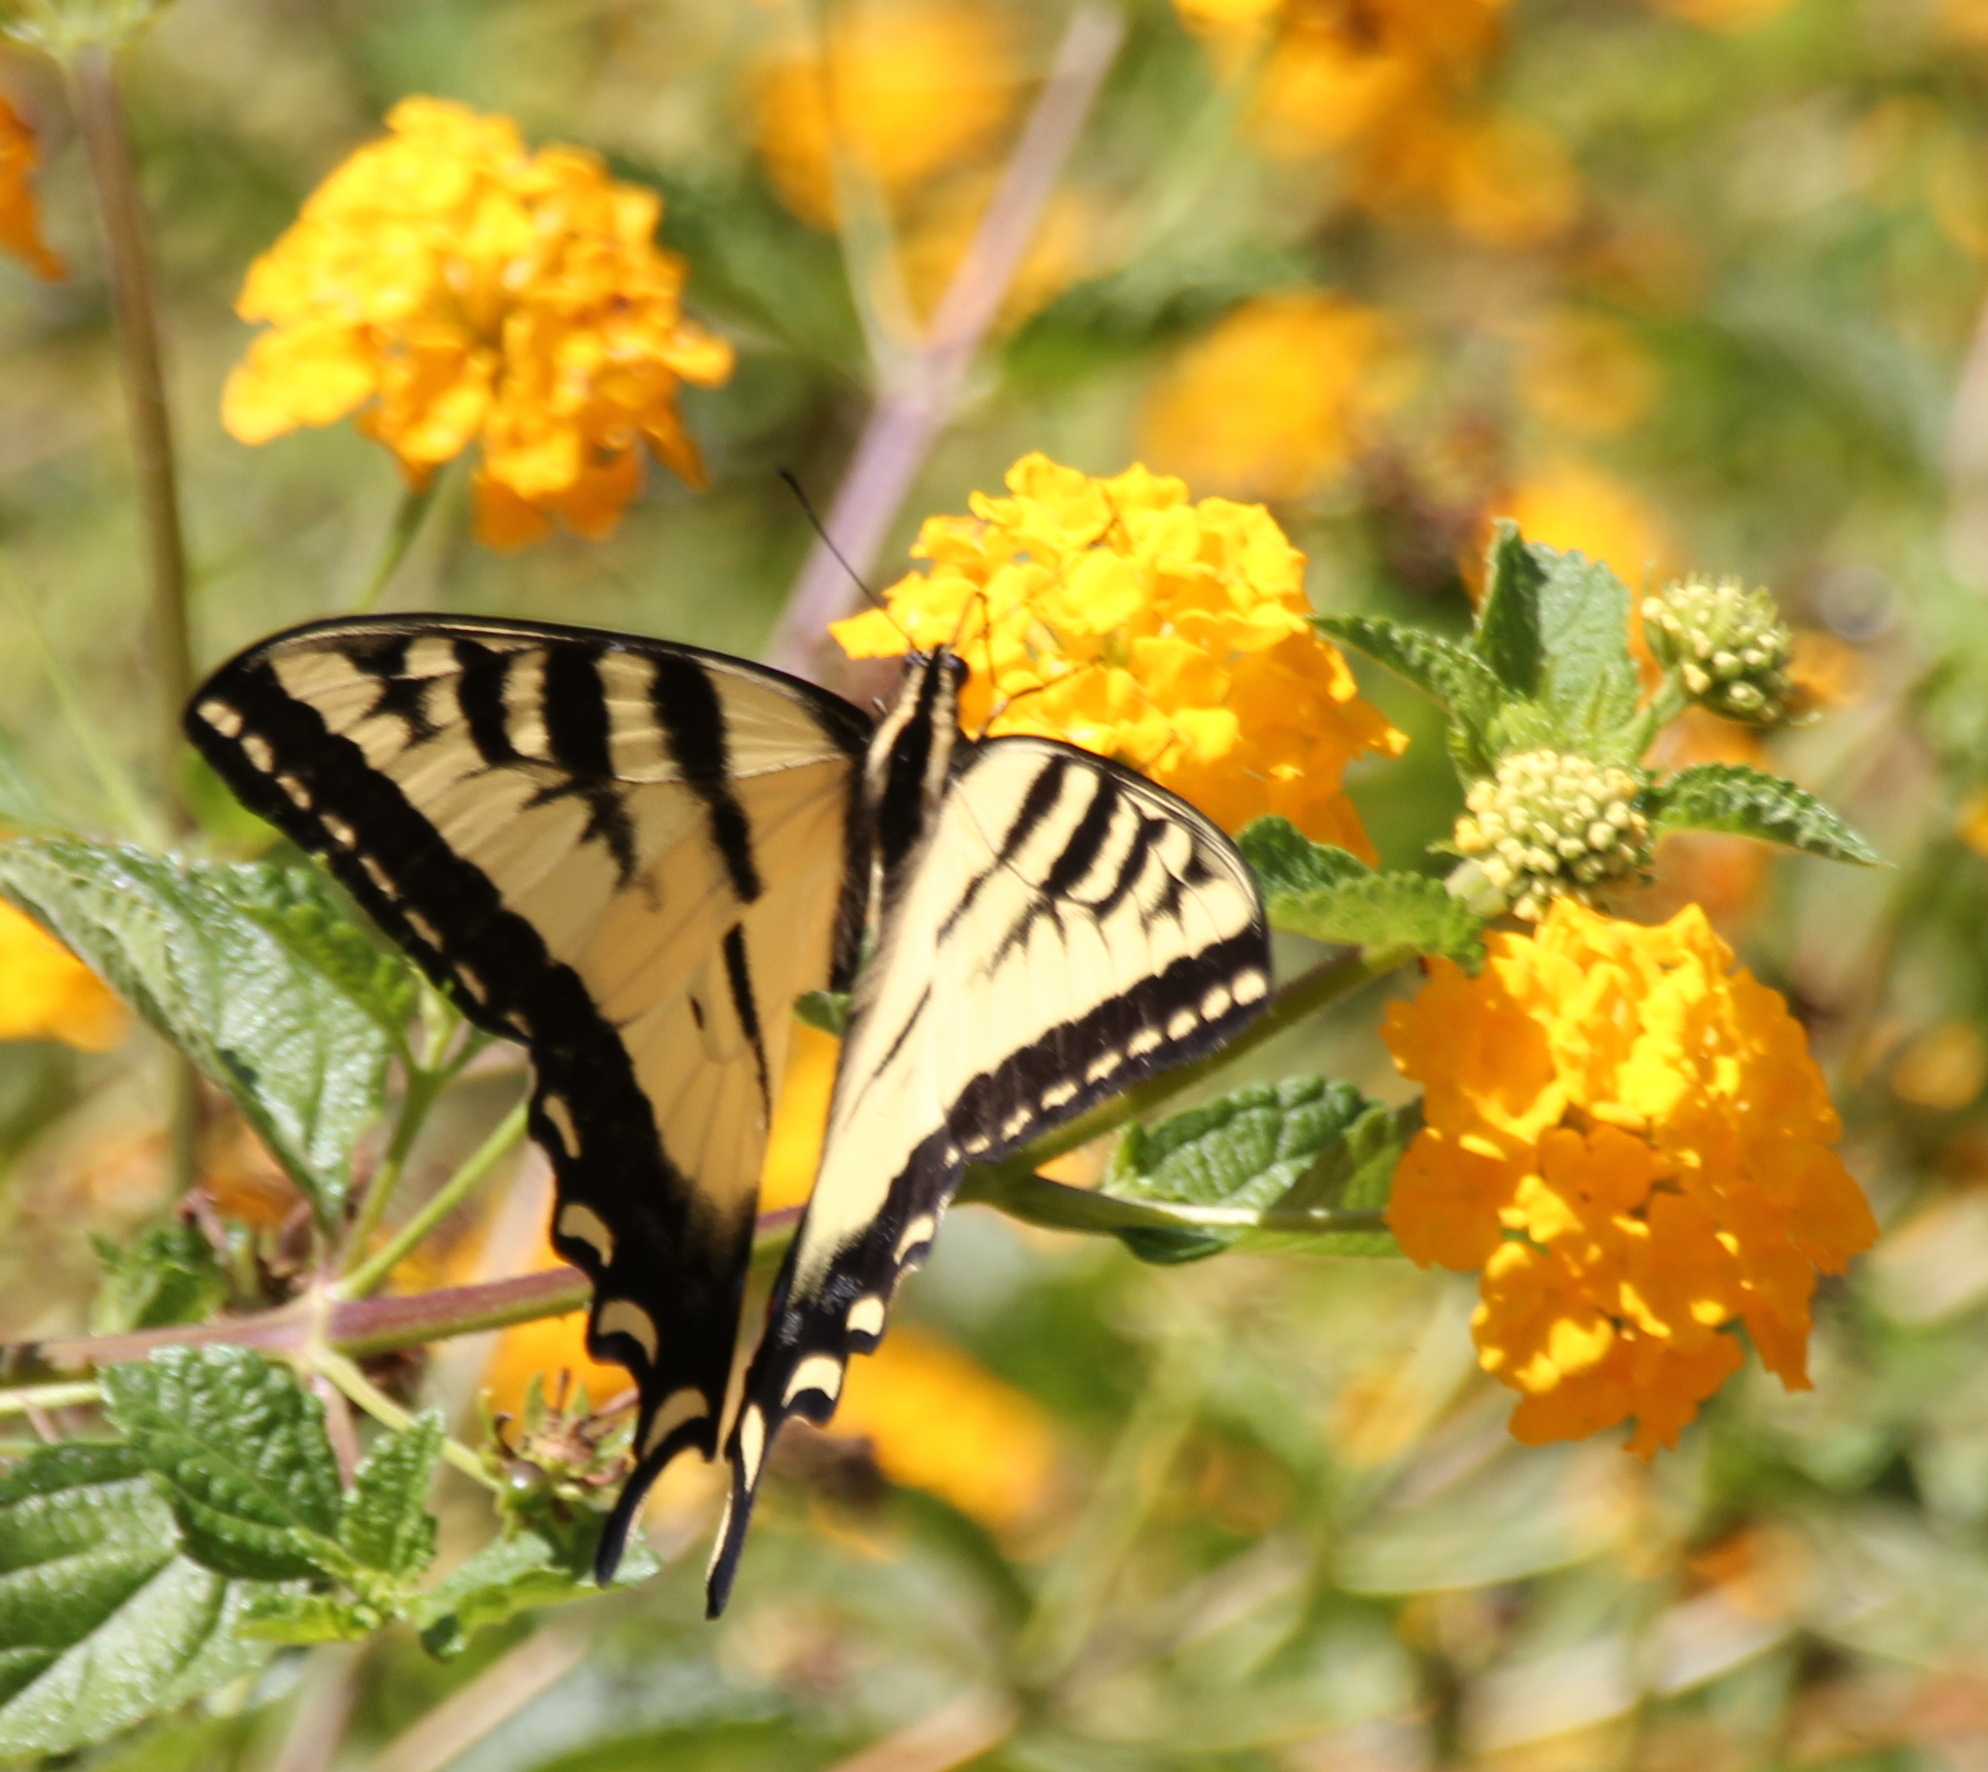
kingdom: Animalia
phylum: Arthropoda
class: Insecta
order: Lepidoptera
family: Papilionidae
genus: Papilio
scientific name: Papilio rutulus
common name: Western tiger swallowtail
